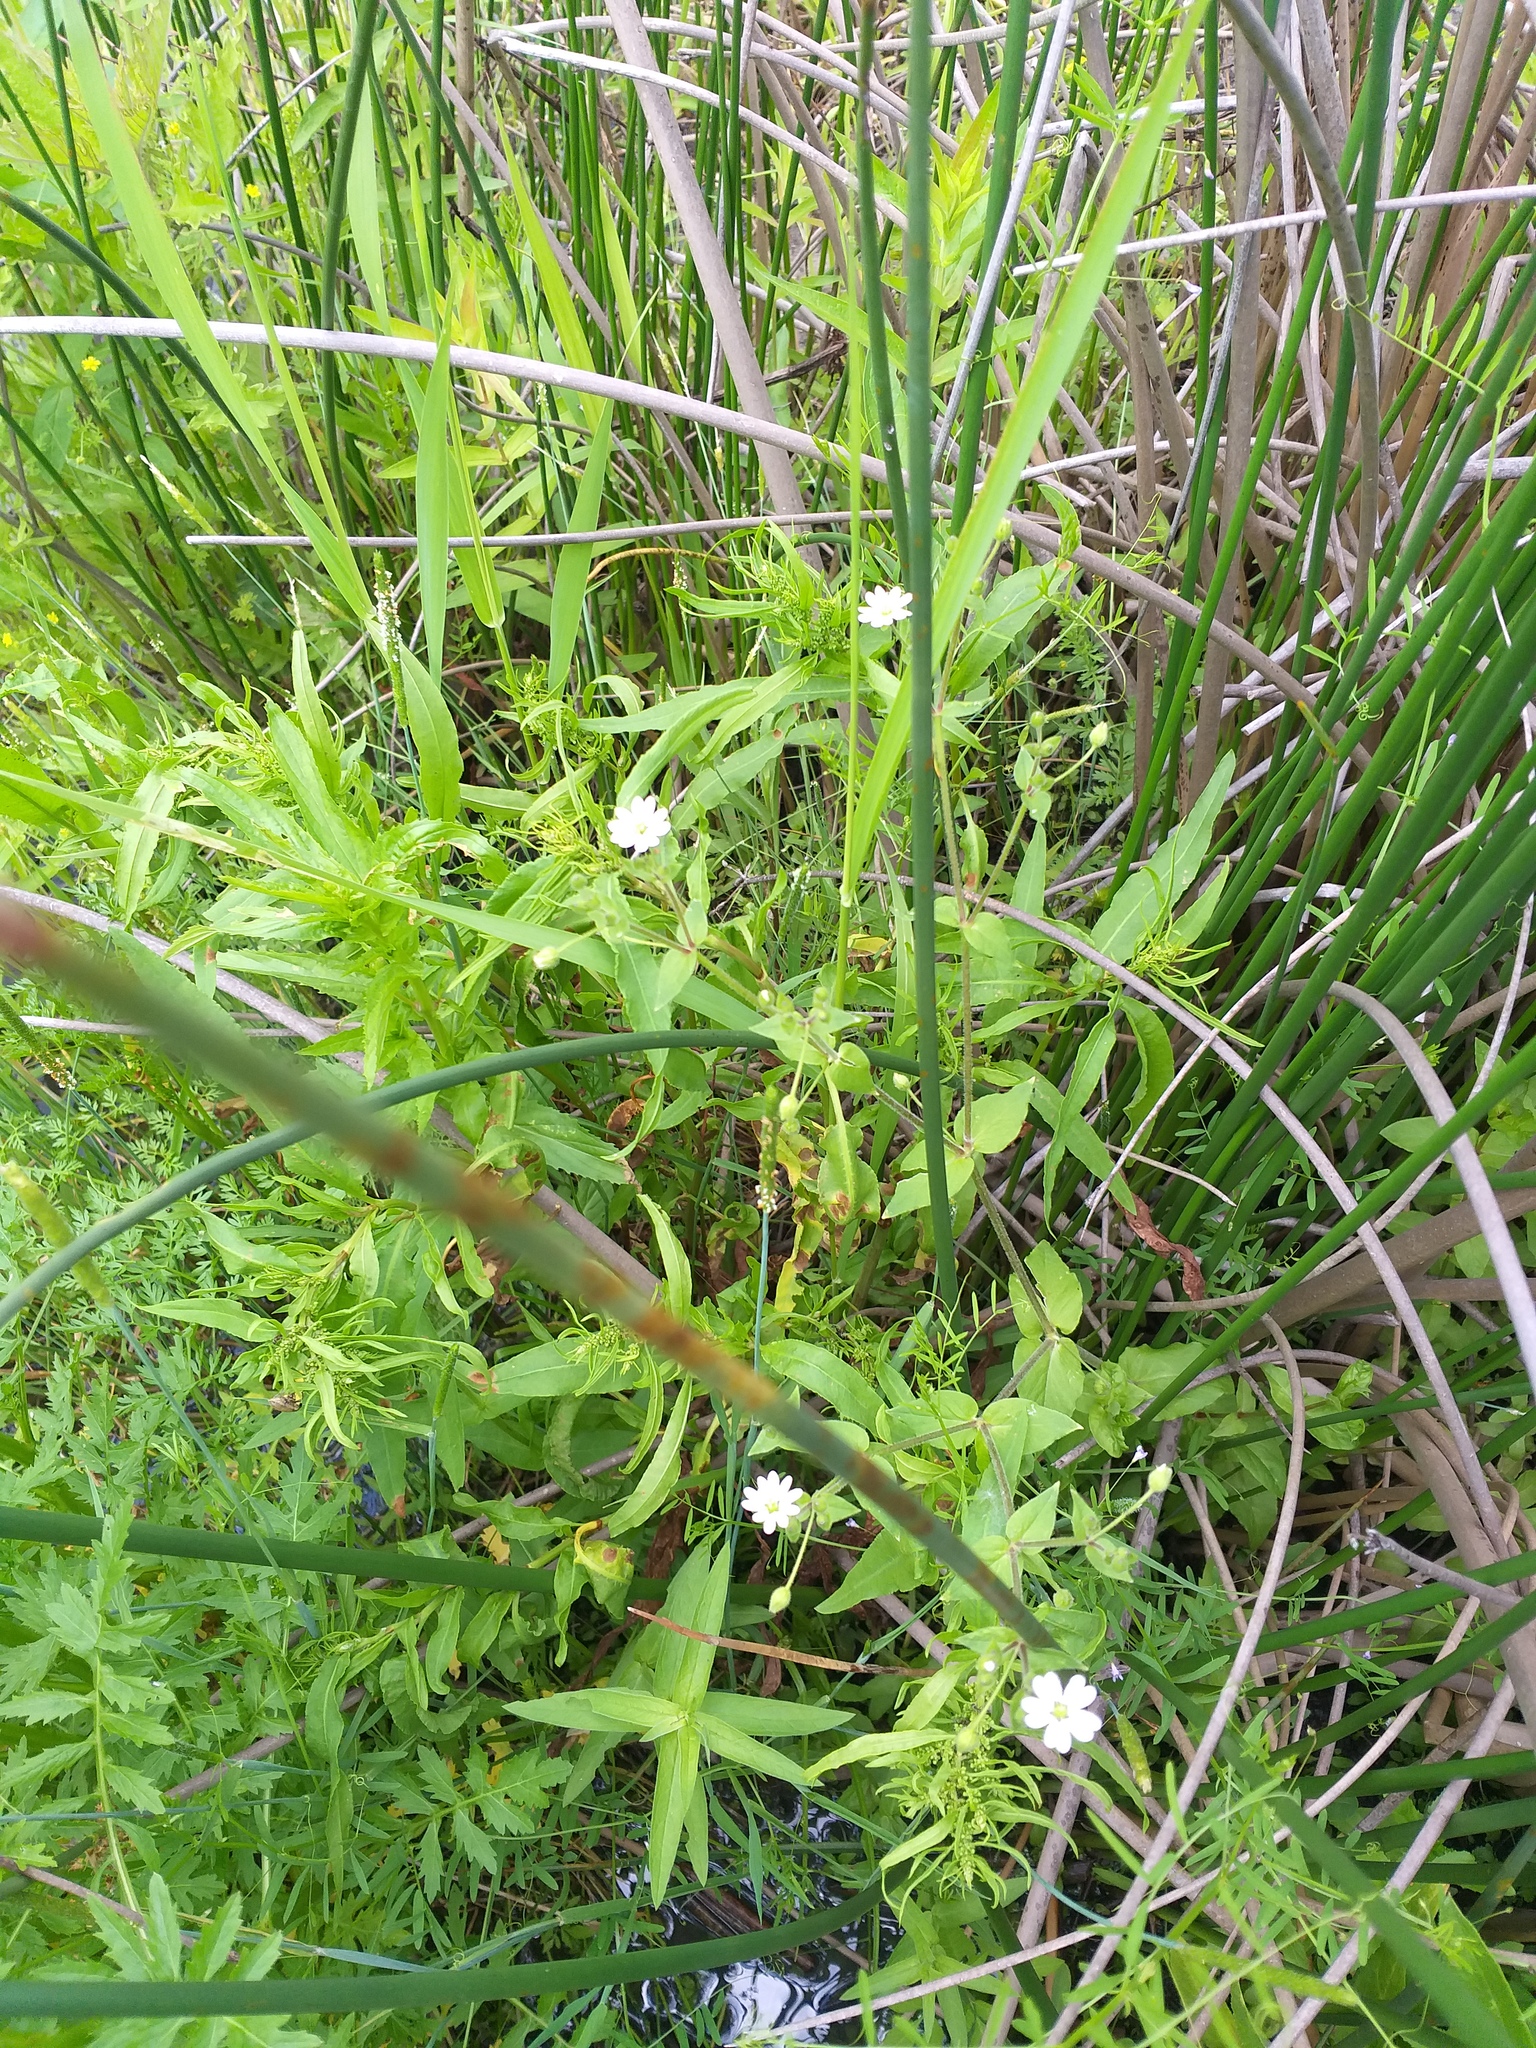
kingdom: Plantae
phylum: Tracheophyta
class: Magnoliopsida
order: Caryophyllales
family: Caryophyllaceae
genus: Stellaria
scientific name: Stellaria aquatica
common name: Water chickweed
